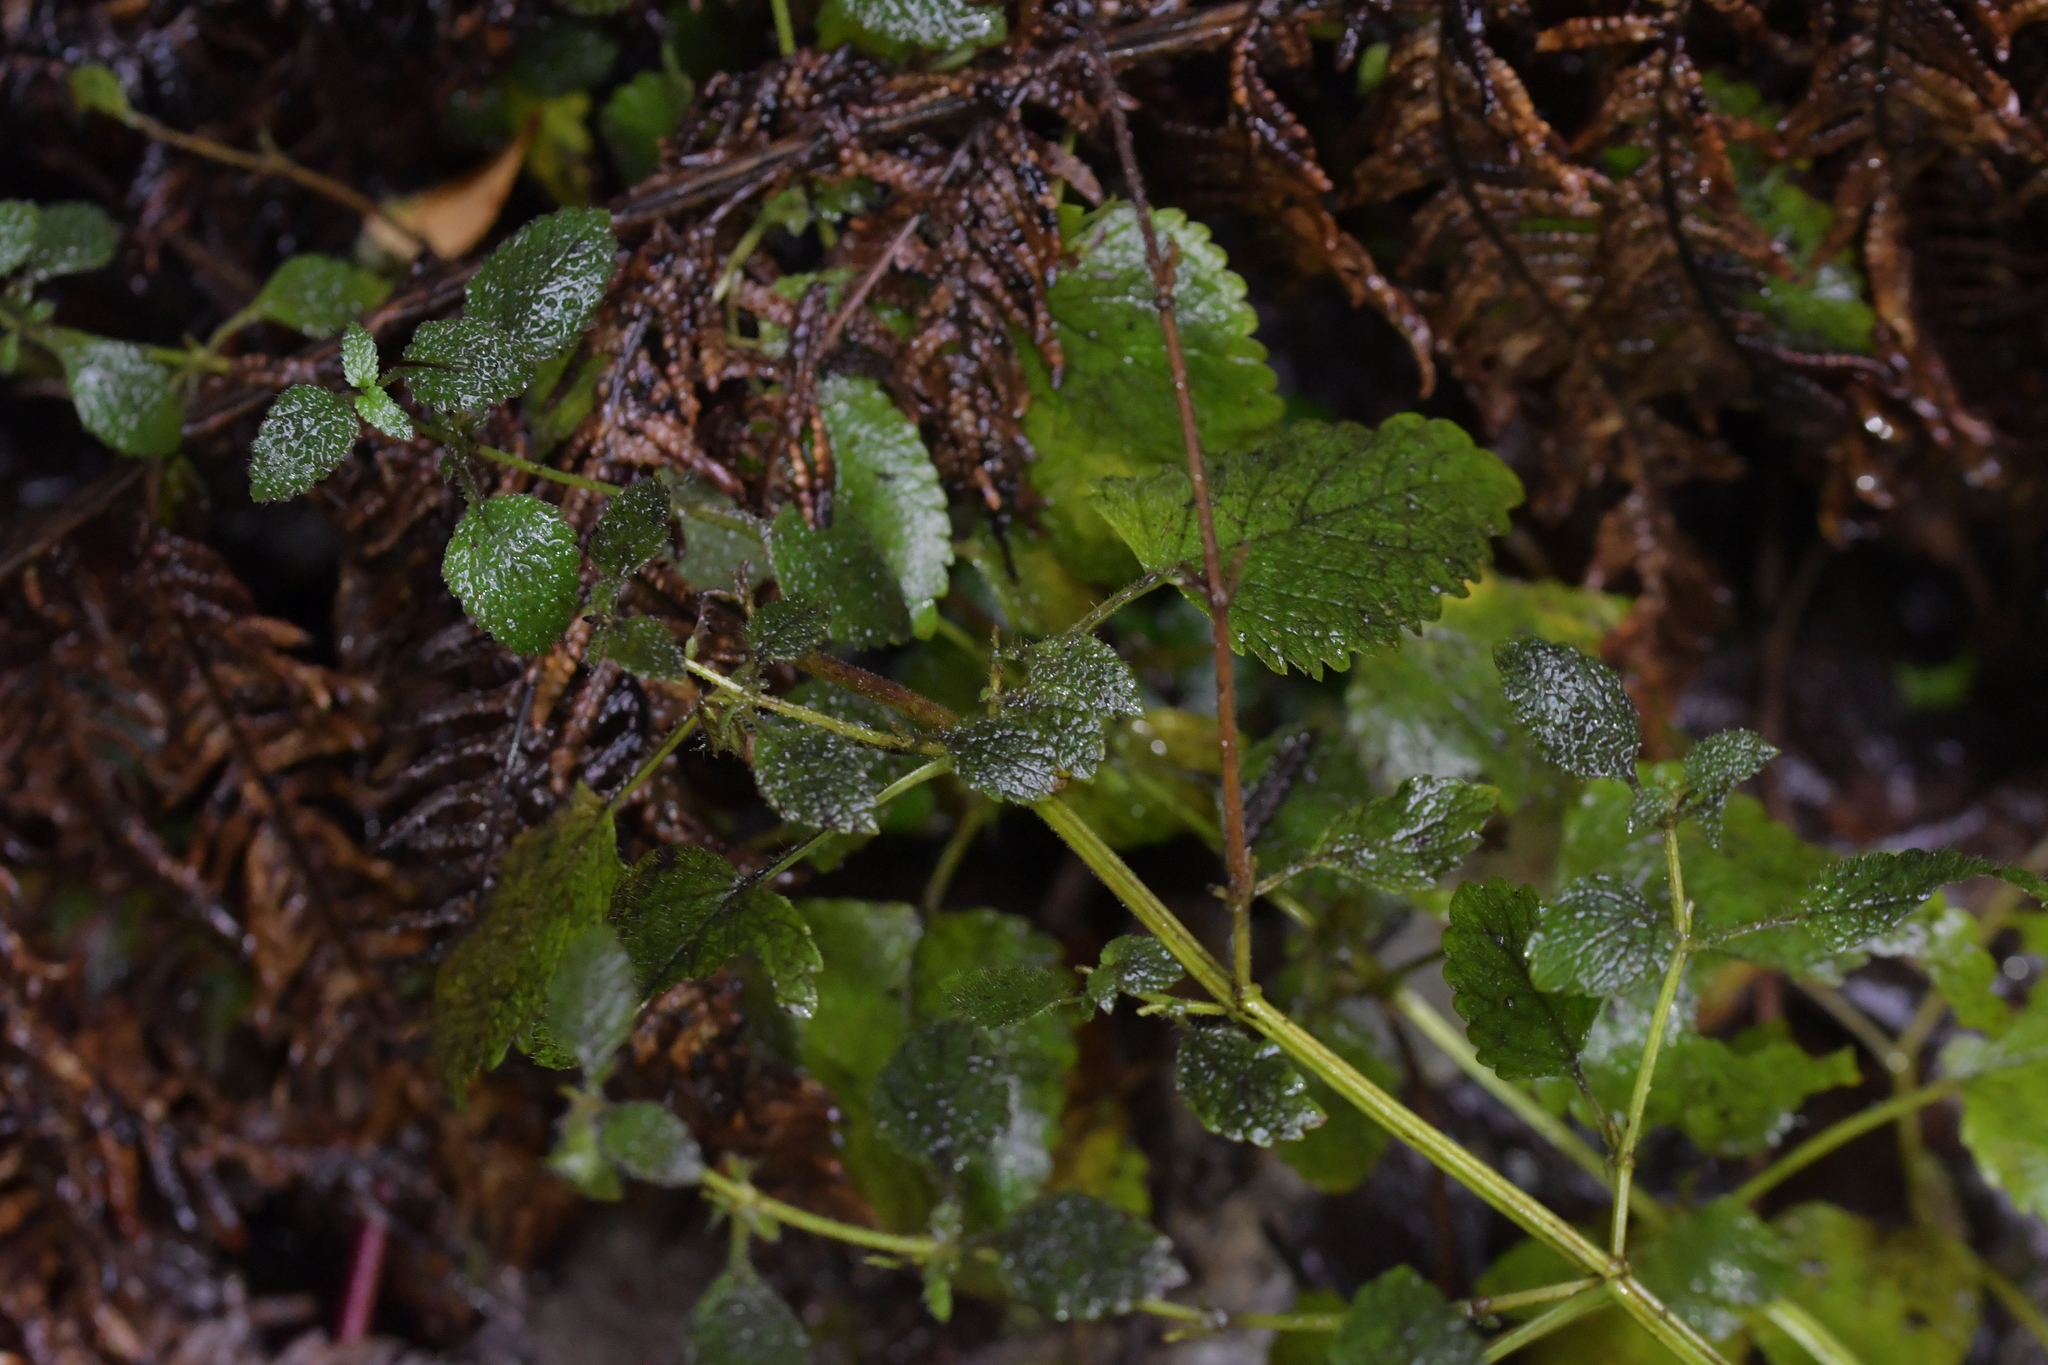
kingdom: Plantae
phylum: Tracheophyta
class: Magnoliopsida
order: Lamiales
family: Lamiaceae
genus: Melissa
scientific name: Melissa officinalis
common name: Balm
